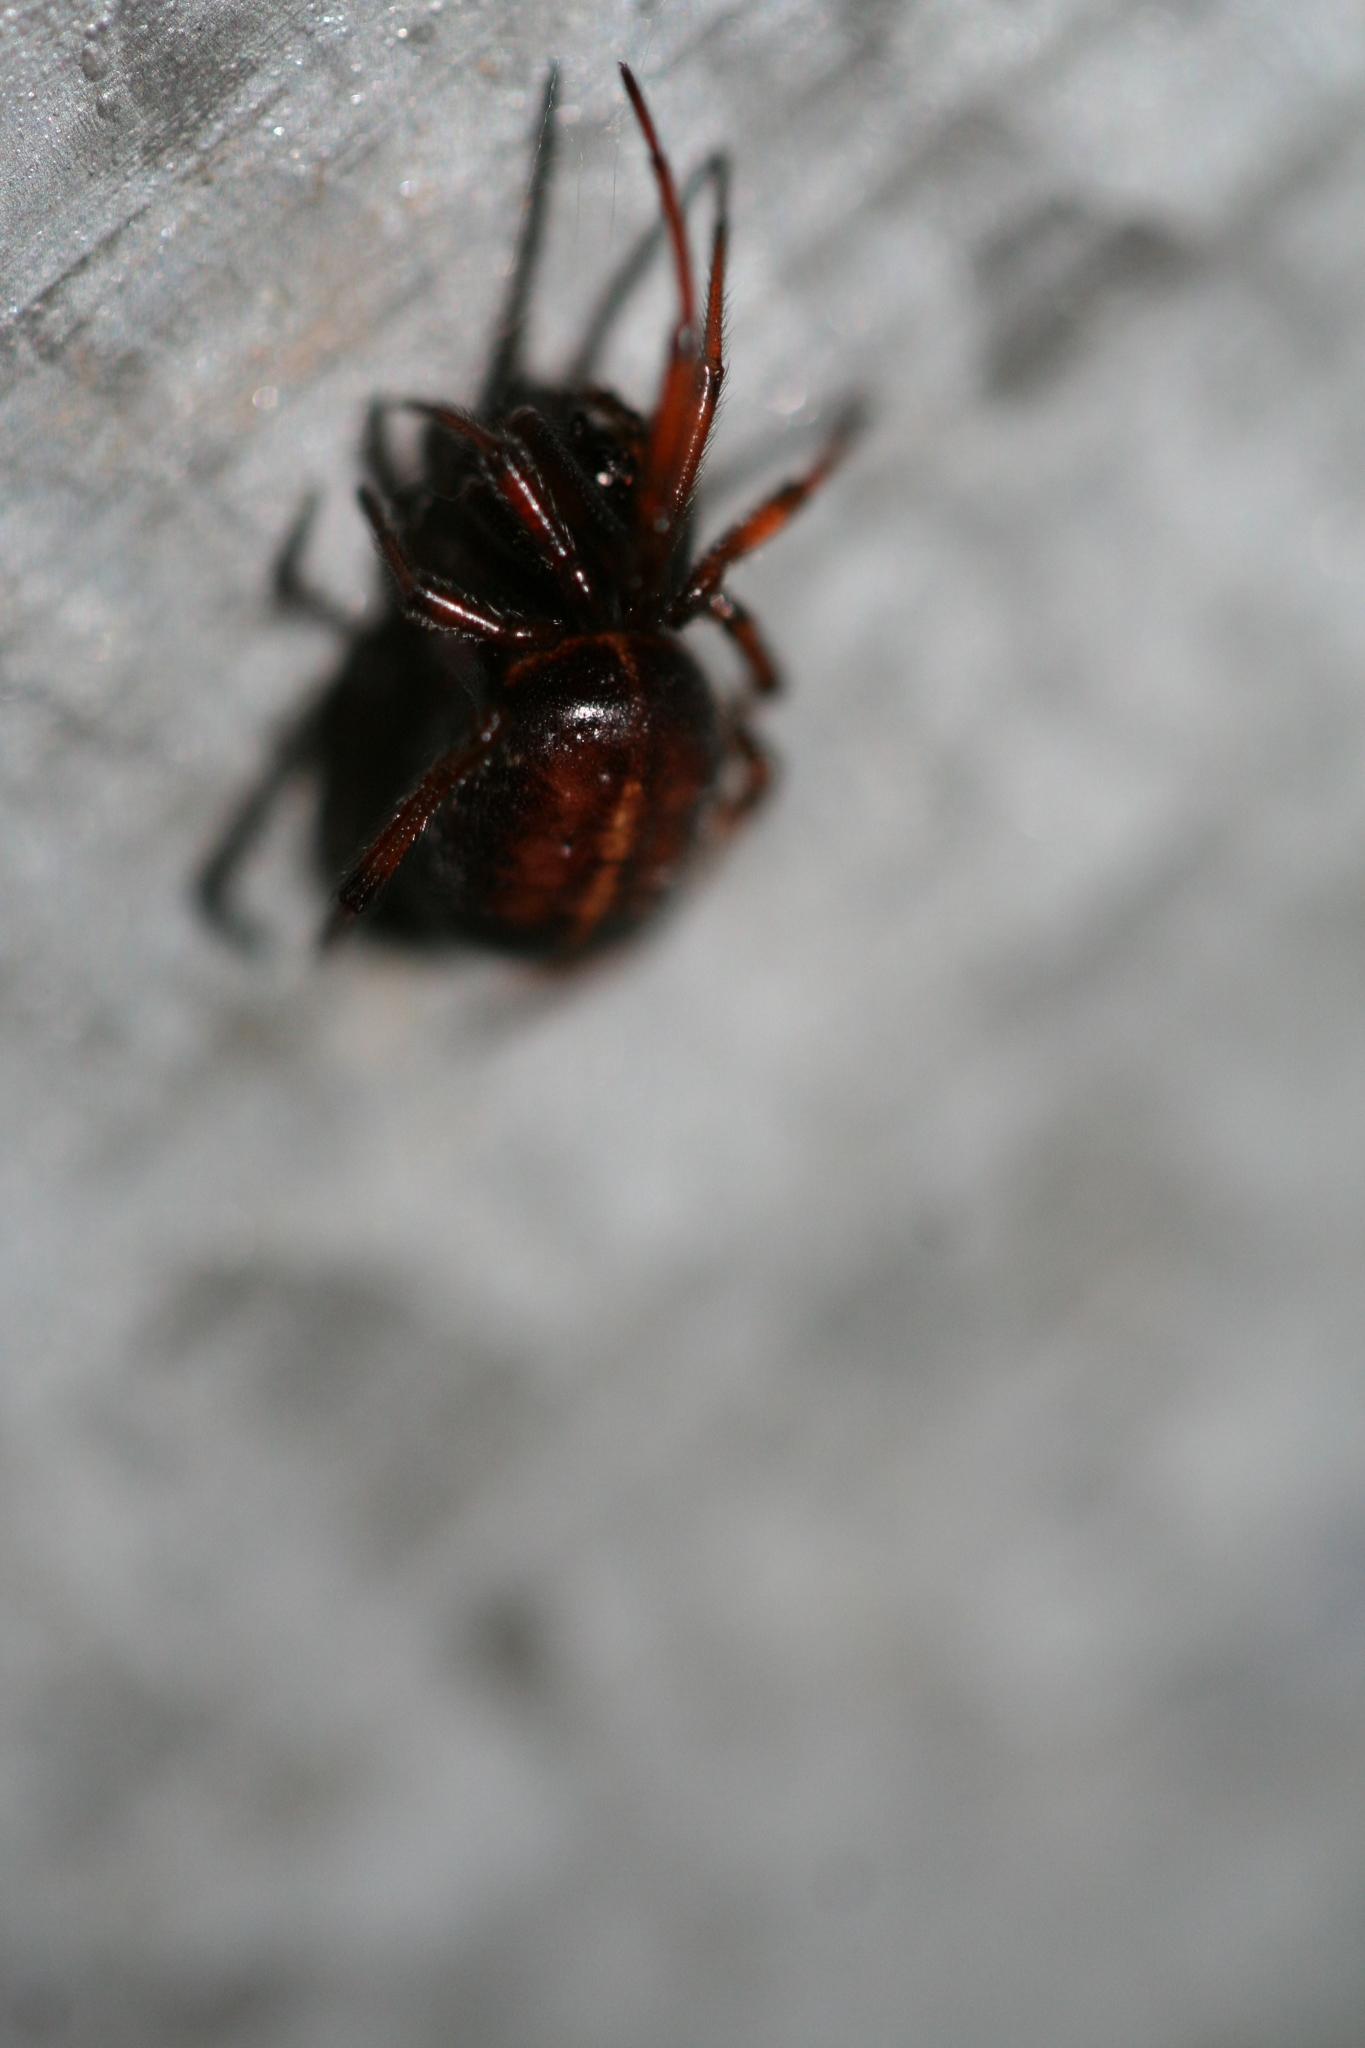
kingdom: Animalia
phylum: Arthropoda
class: Arachnida
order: Araneae
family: Theridiidae
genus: Steatoda
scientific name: Steatoda bipunctata
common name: False widow
